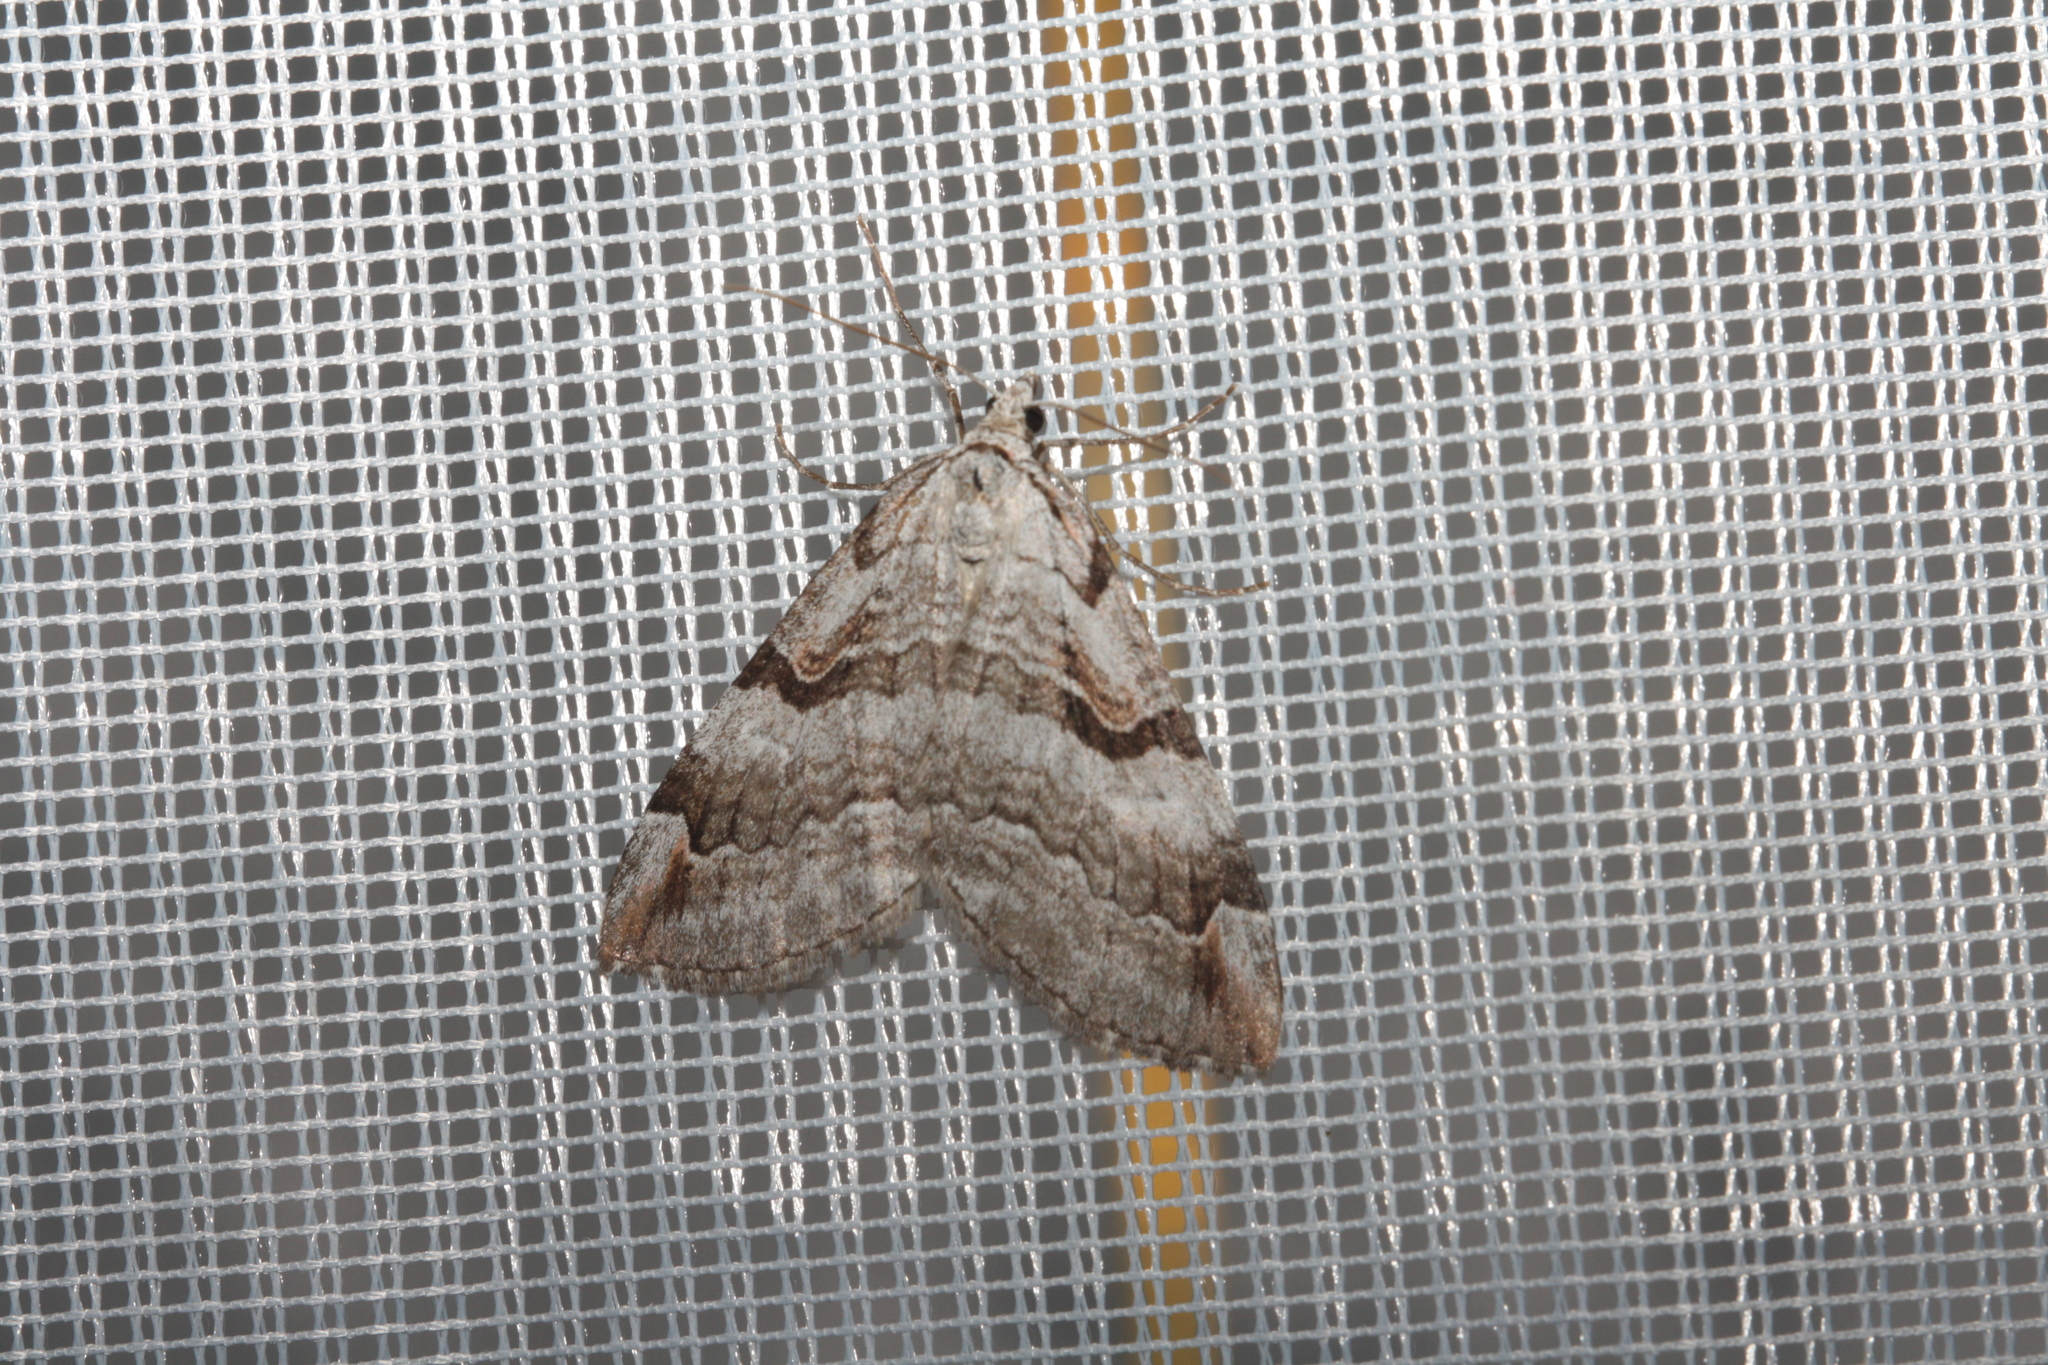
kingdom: Animalia
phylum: Arthropoda
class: Insecta
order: Lepidoptera
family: Geometridae
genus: Aplocera
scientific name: Aplocera praeformata
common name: Purple treble-bar
